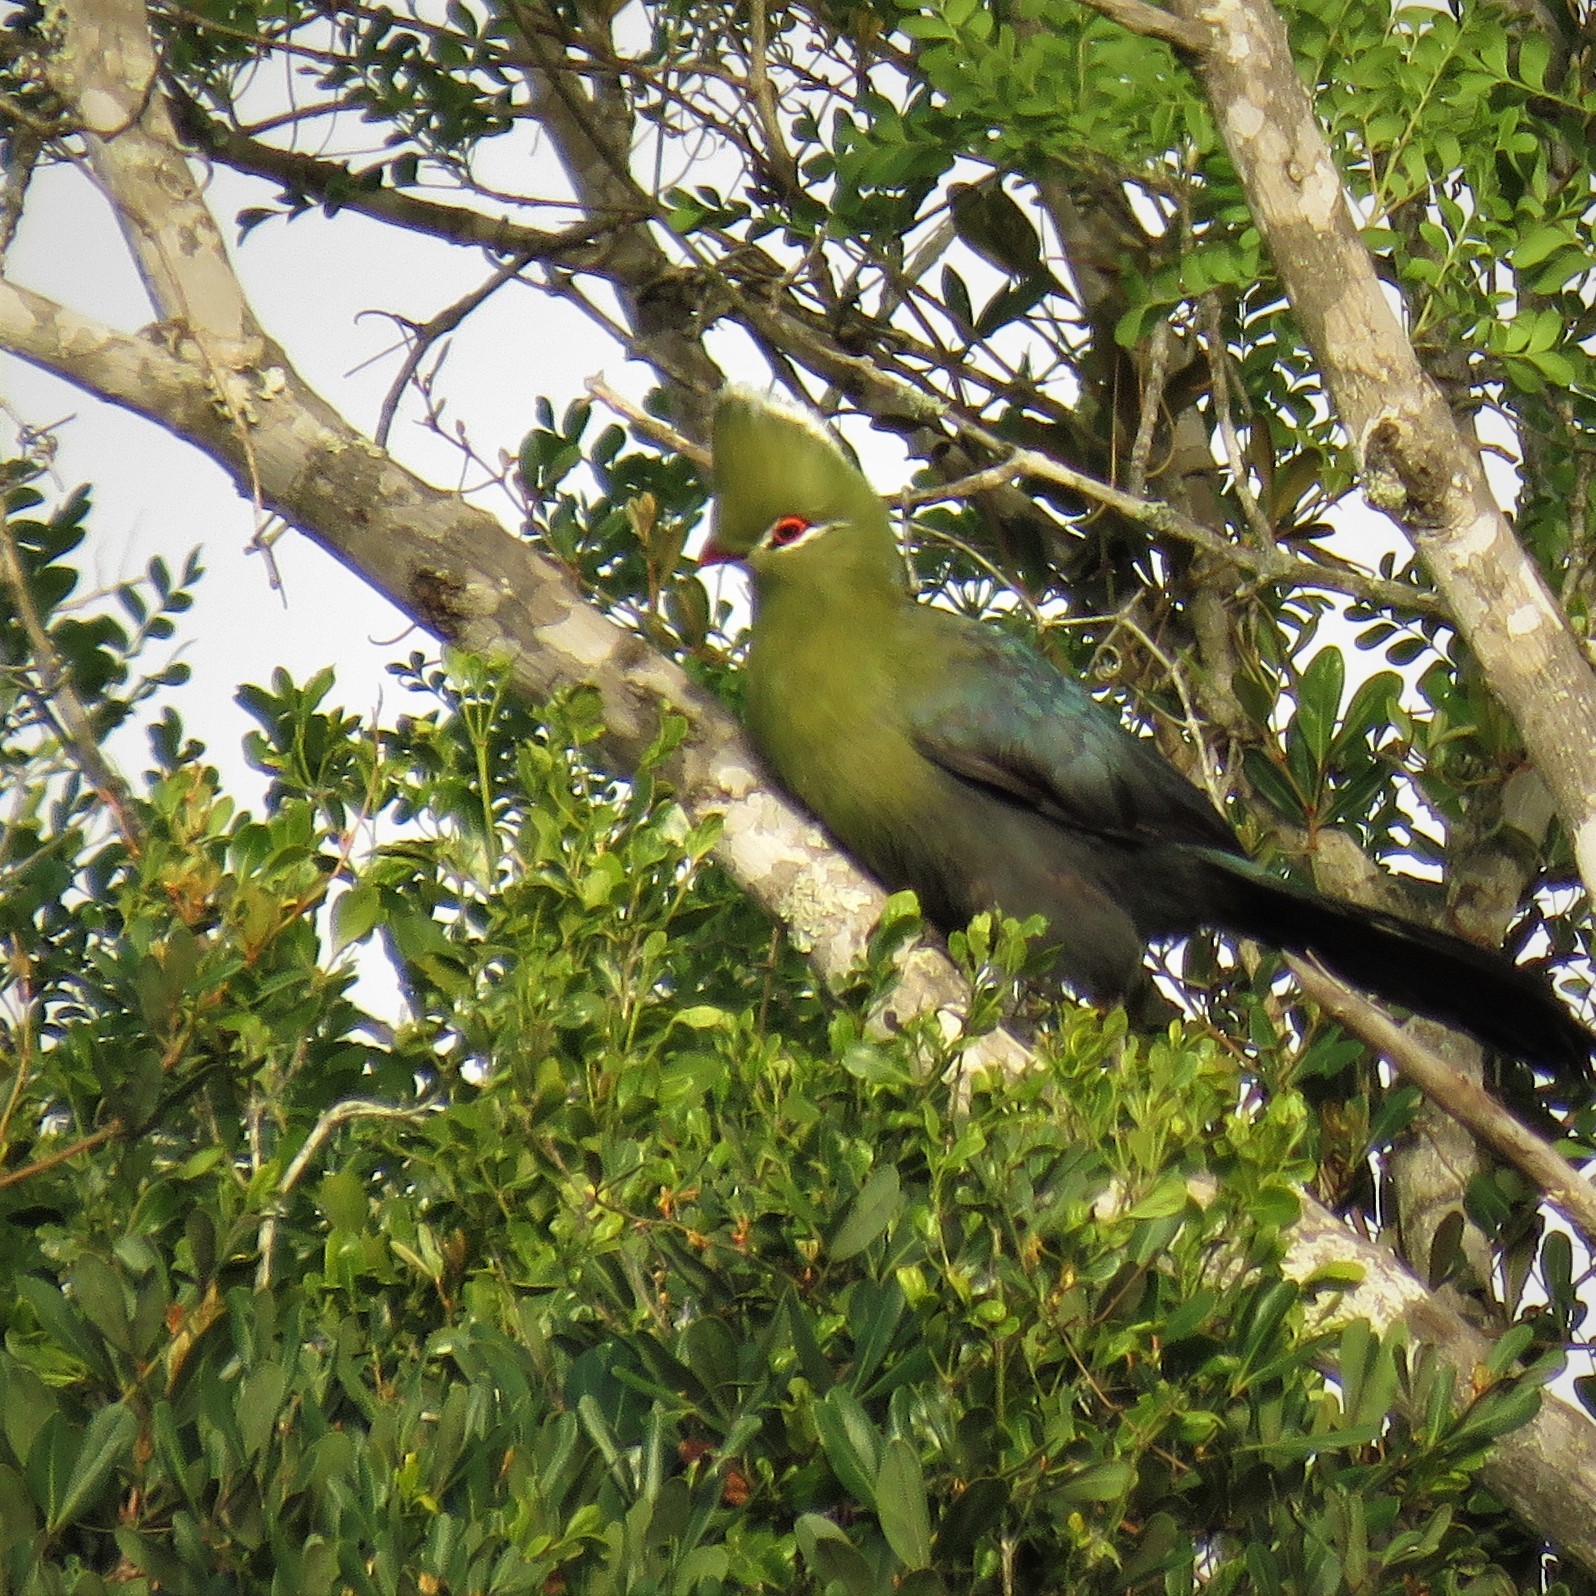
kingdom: Animalia
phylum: Chordata
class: Aves
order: Musophagiformes
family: Musophagidae
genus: Tauraco
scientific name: Tauraco corythaix
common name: Knysna turaco
